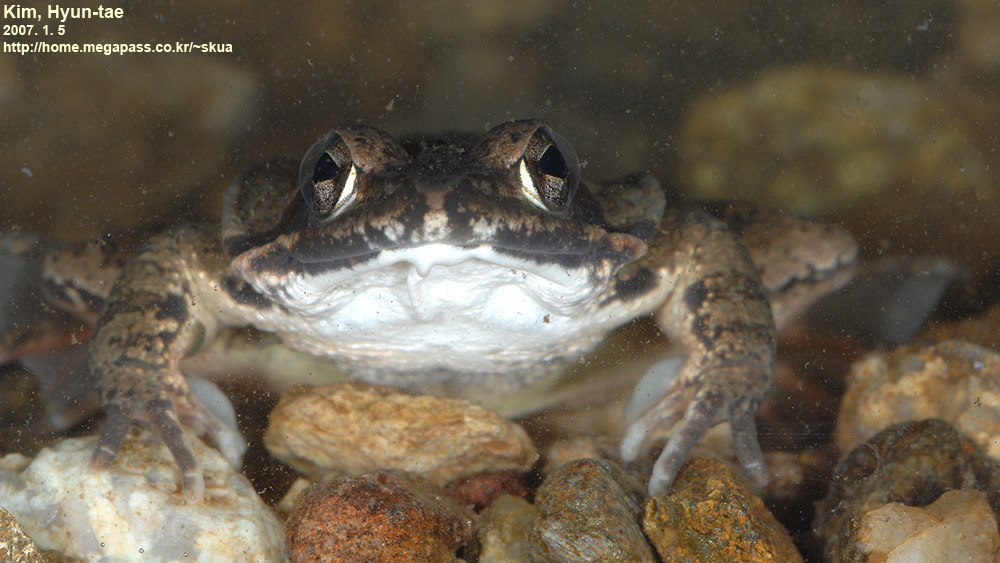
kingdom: Animalia
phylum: Chordata
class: Amphibia
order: Anura
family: Ranidae
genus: Rana
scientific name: Rana uenoi
